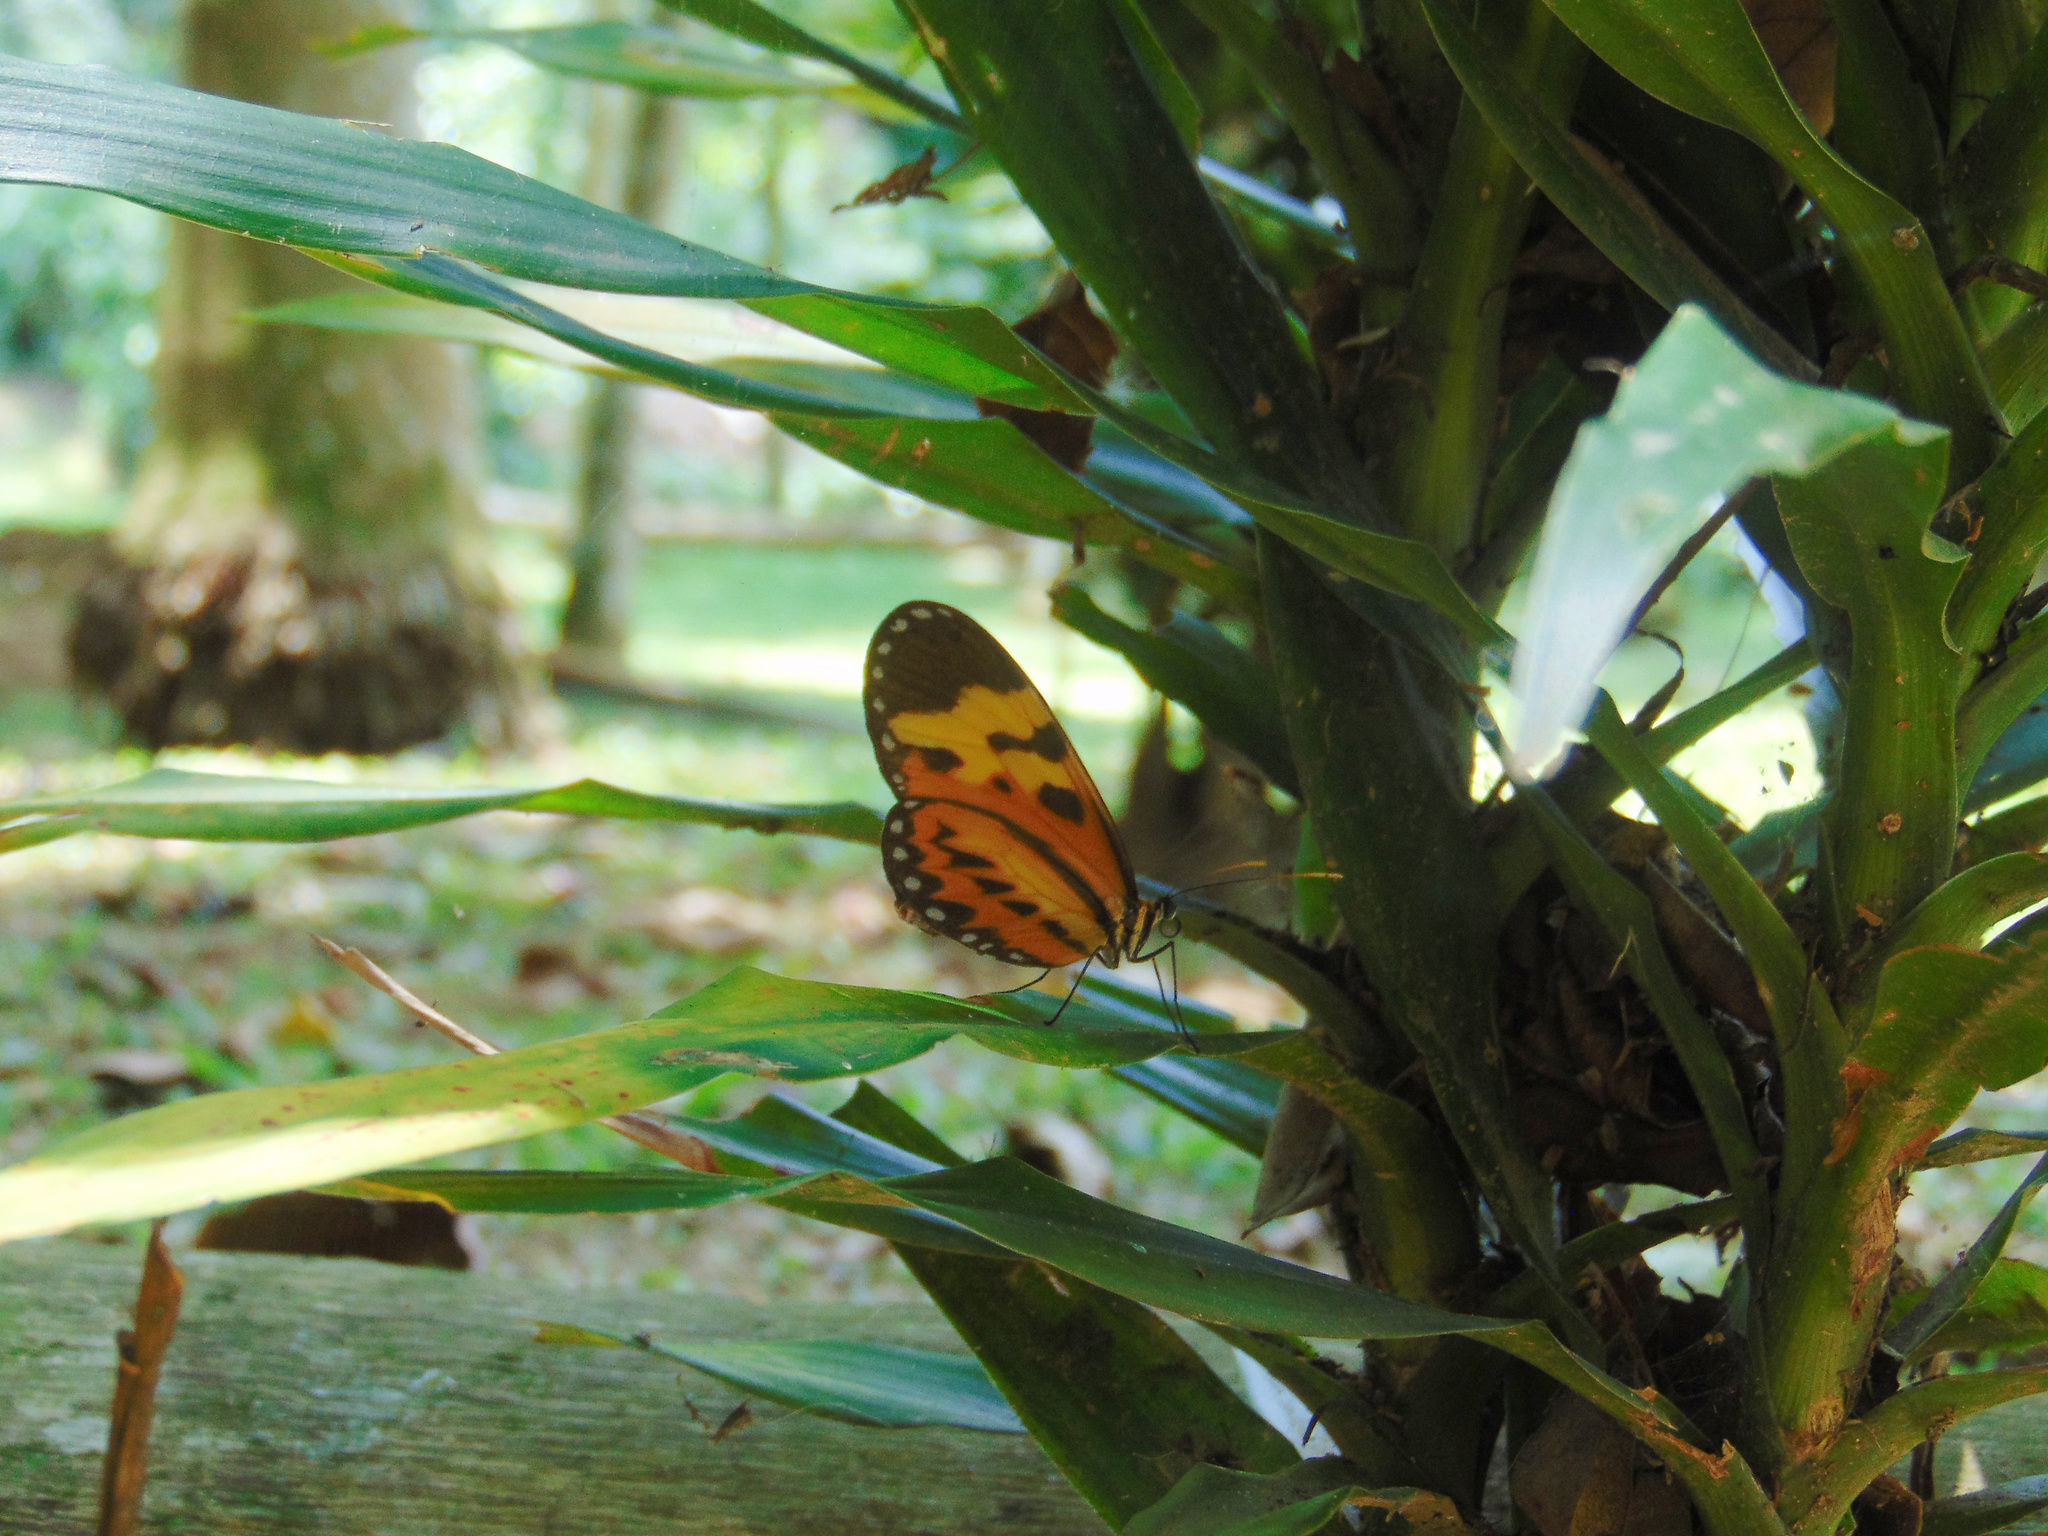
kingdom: Animalia
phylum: Arthropoda
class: Insecta
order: Lepidoptera
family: Nymphalidae
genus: Mechanitis
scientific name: Mechanitis polymnia
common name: Disturbed tigerwing
